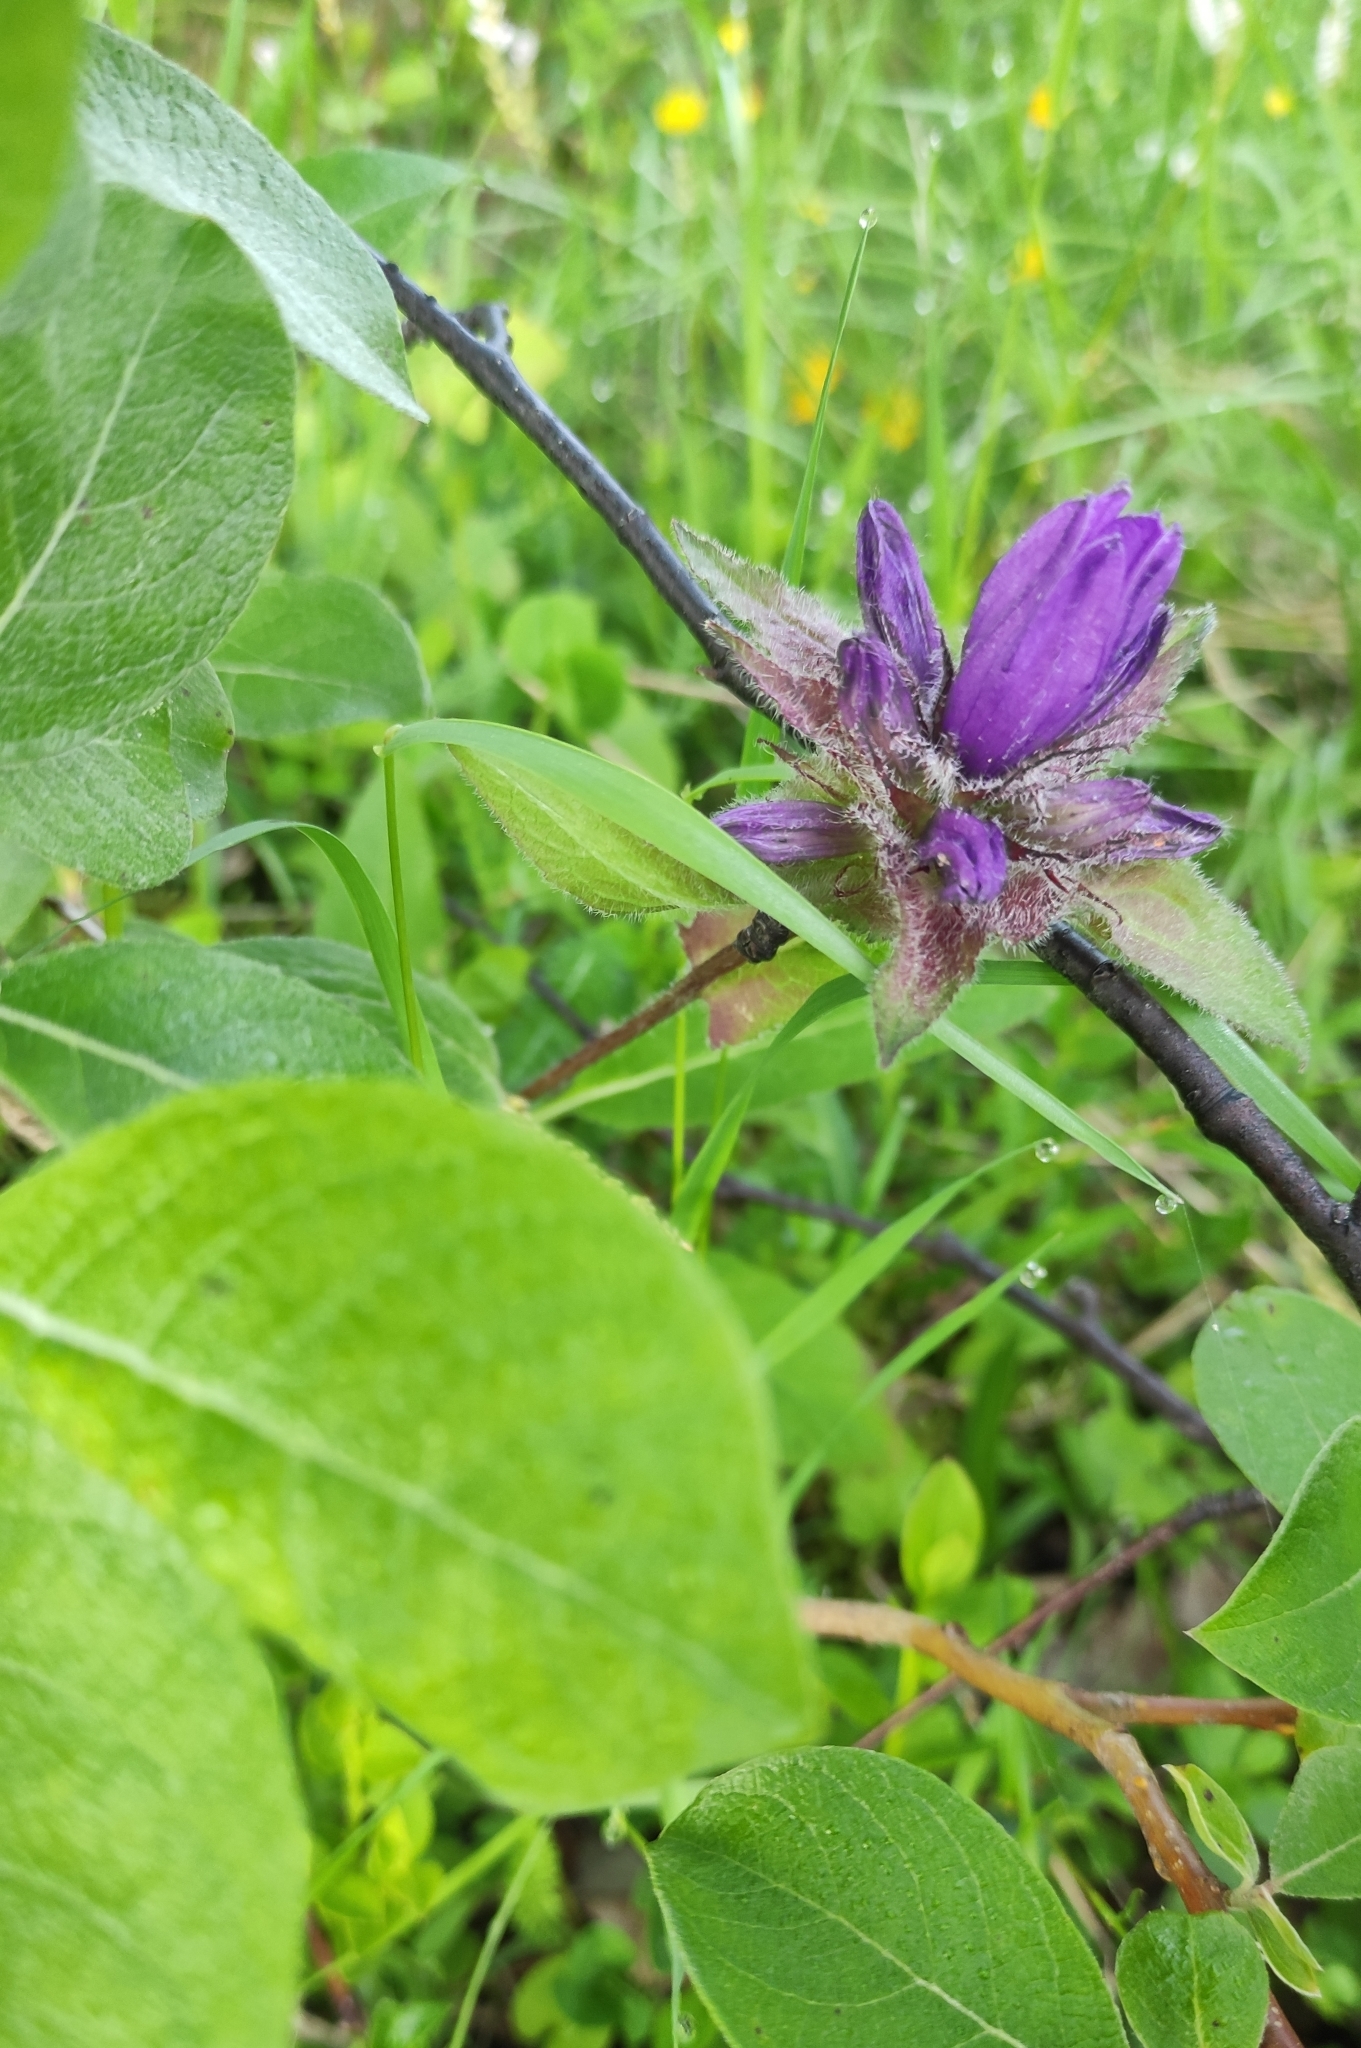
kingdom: Plantae
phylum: Tracheophyta
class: Magnoliopsida
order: Asterales
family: Campanulaceae
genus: Campanula
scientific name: Campanula glomerata
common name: Clustered bellflower
